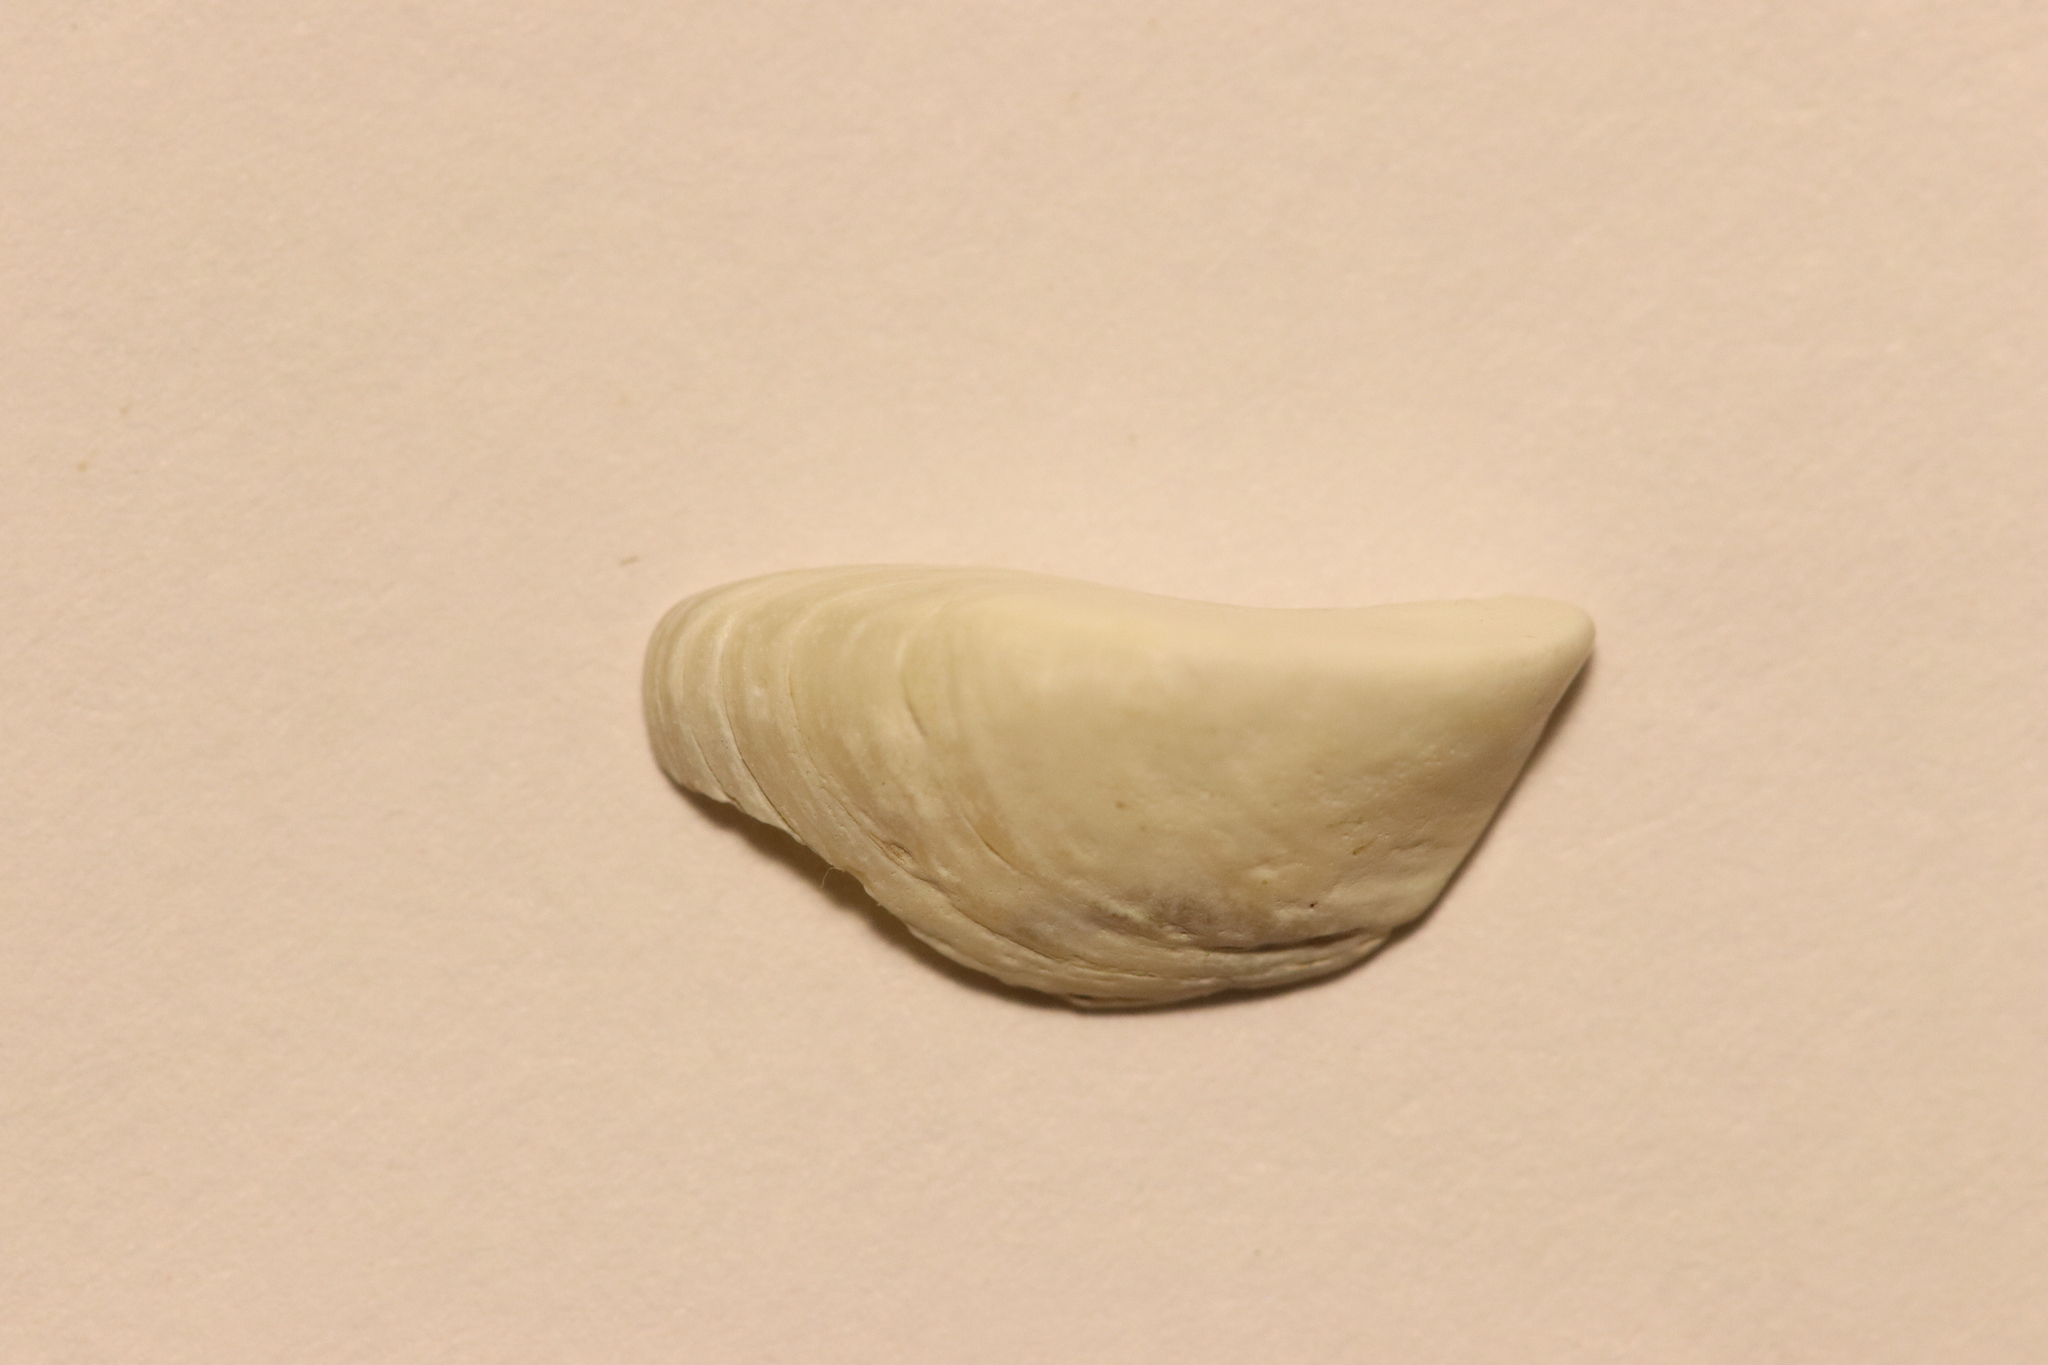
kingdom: Animalia
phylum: Mollusca
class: Bivalvia
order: Myida
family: Dreissenidae
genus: Dreissena
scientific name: Dreissena polymorpha
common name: Zebra mussel
